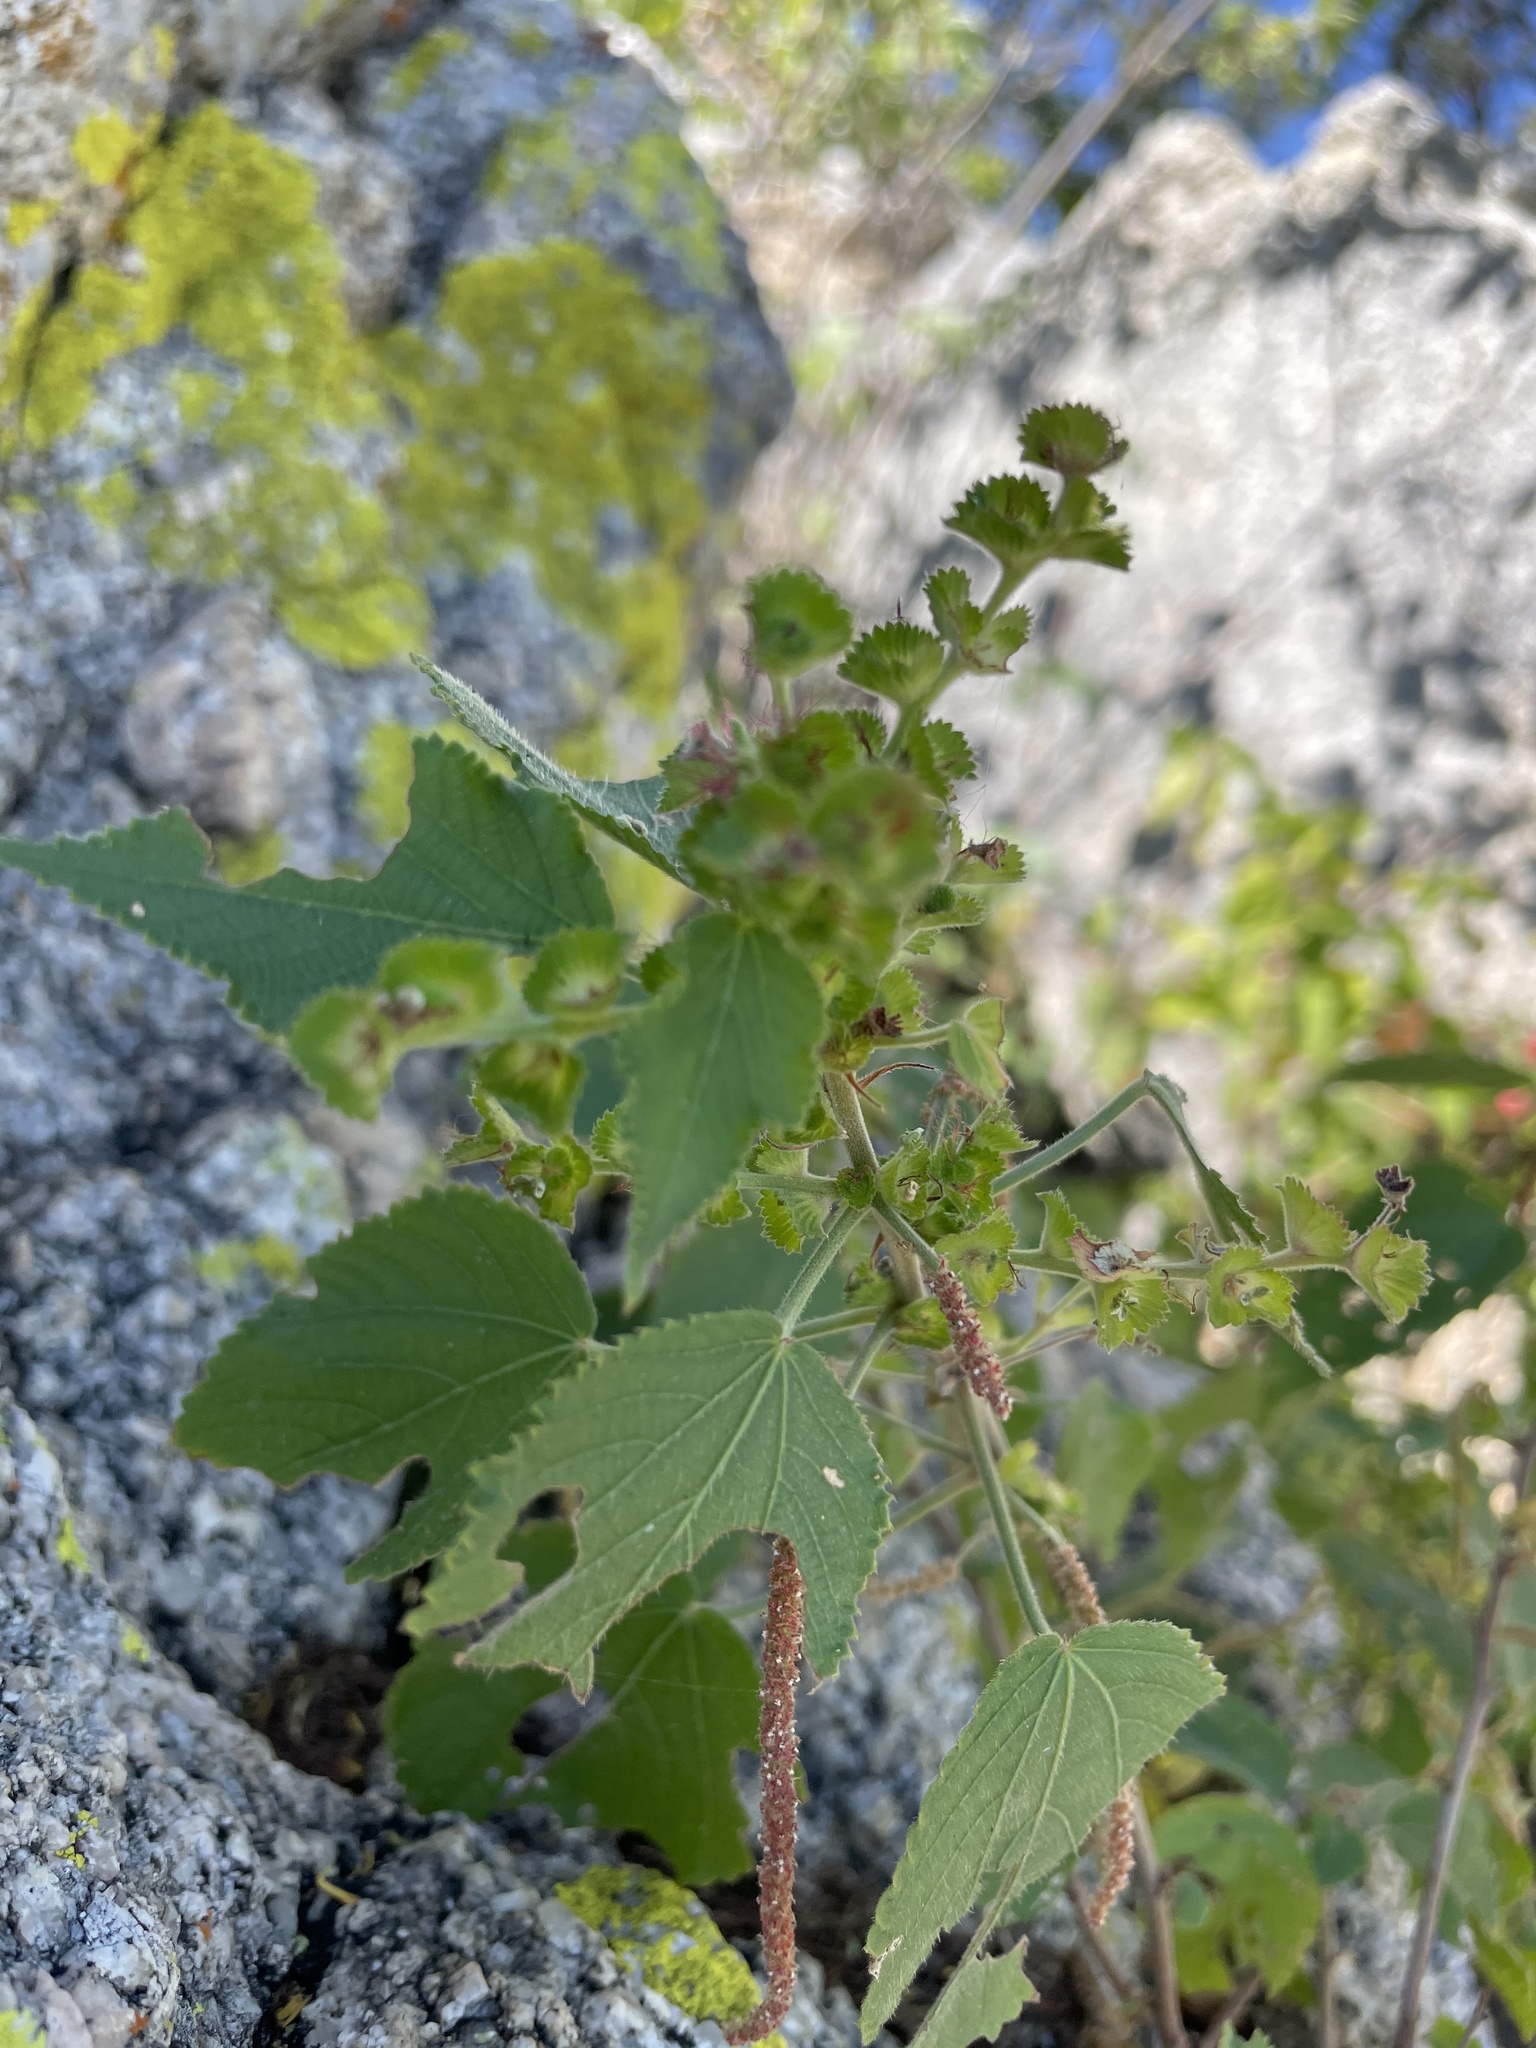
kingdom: Plantae
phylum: Tracheophyta
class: Magnoliopsida
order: Malpighiales
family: Euphorbiaceae
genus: Acalypha
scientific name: Acalypha comonduana
